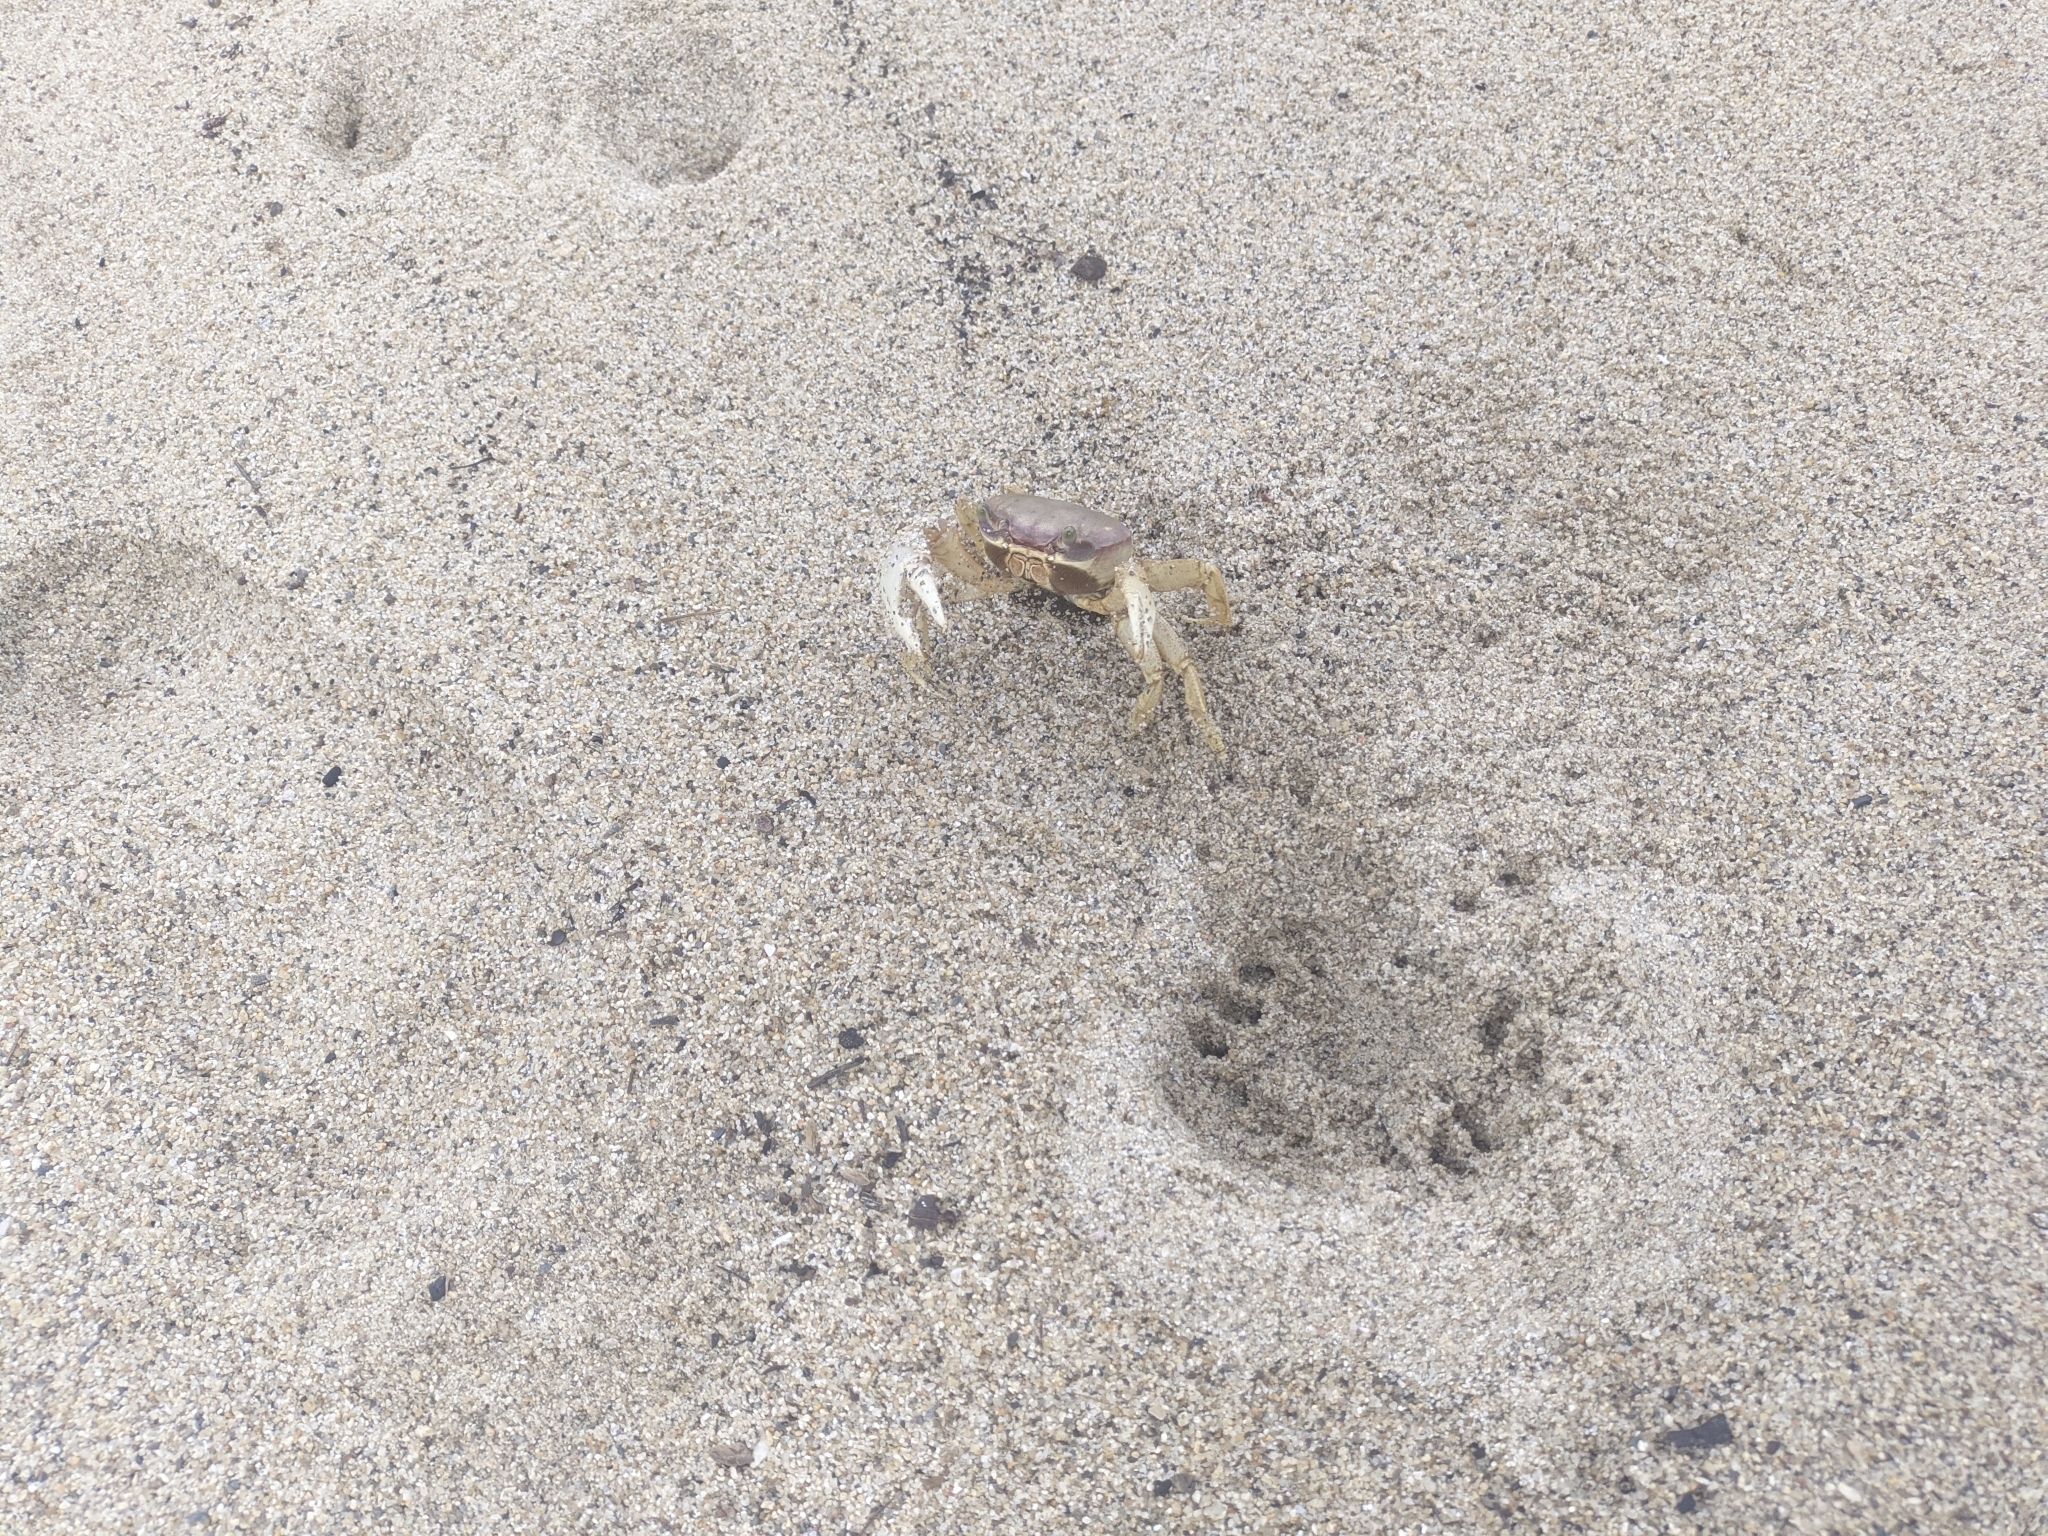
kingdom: Animalia
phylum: Arthropoda
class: Malacostraca
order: Decapoda
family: Gecarcinidae
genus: Cardisoma
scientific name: Cardisoma guanhumi
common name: Great land crab
